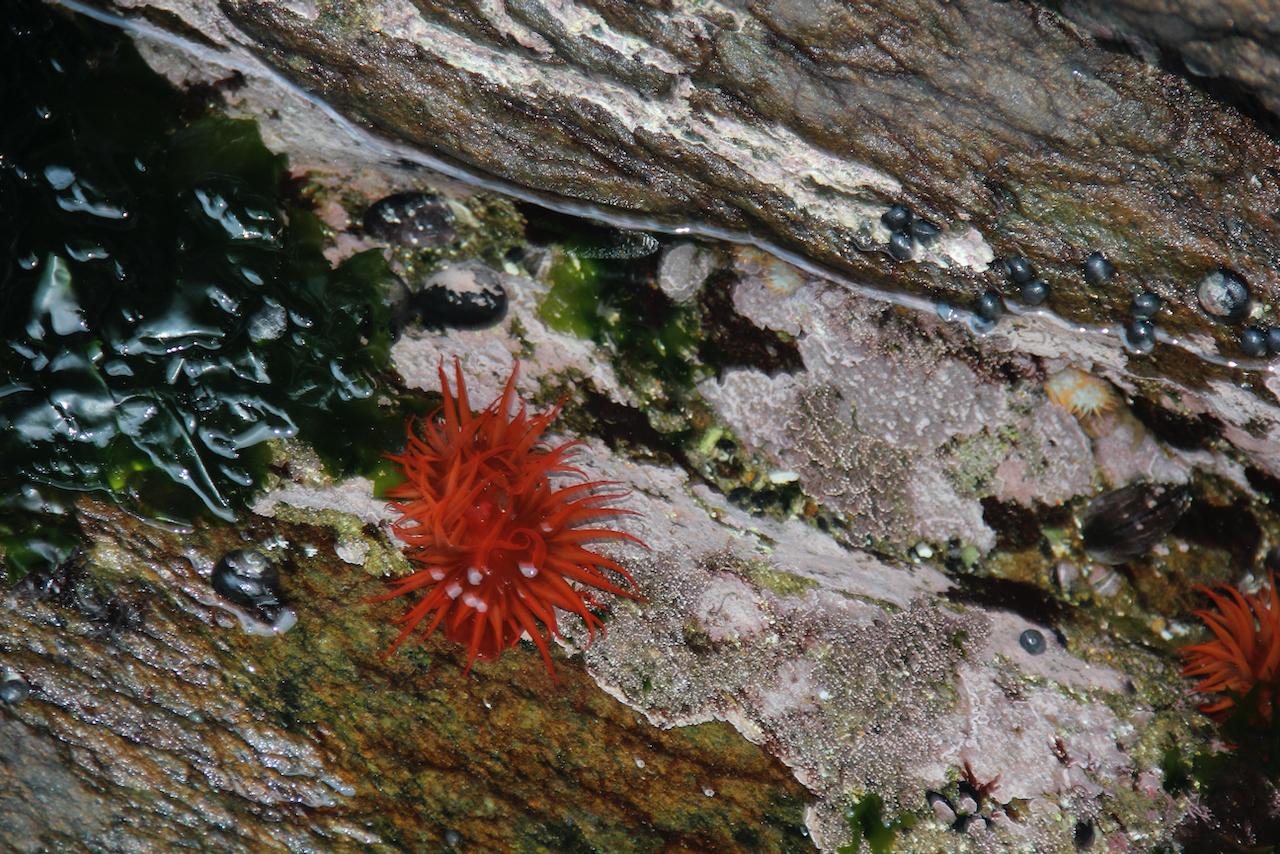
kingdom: Animalia
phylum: Cnidaria
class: Anthozoa
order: Actiniaria
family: Actiniidae
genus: Anemonia
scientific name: Anemonia alicemartinae
